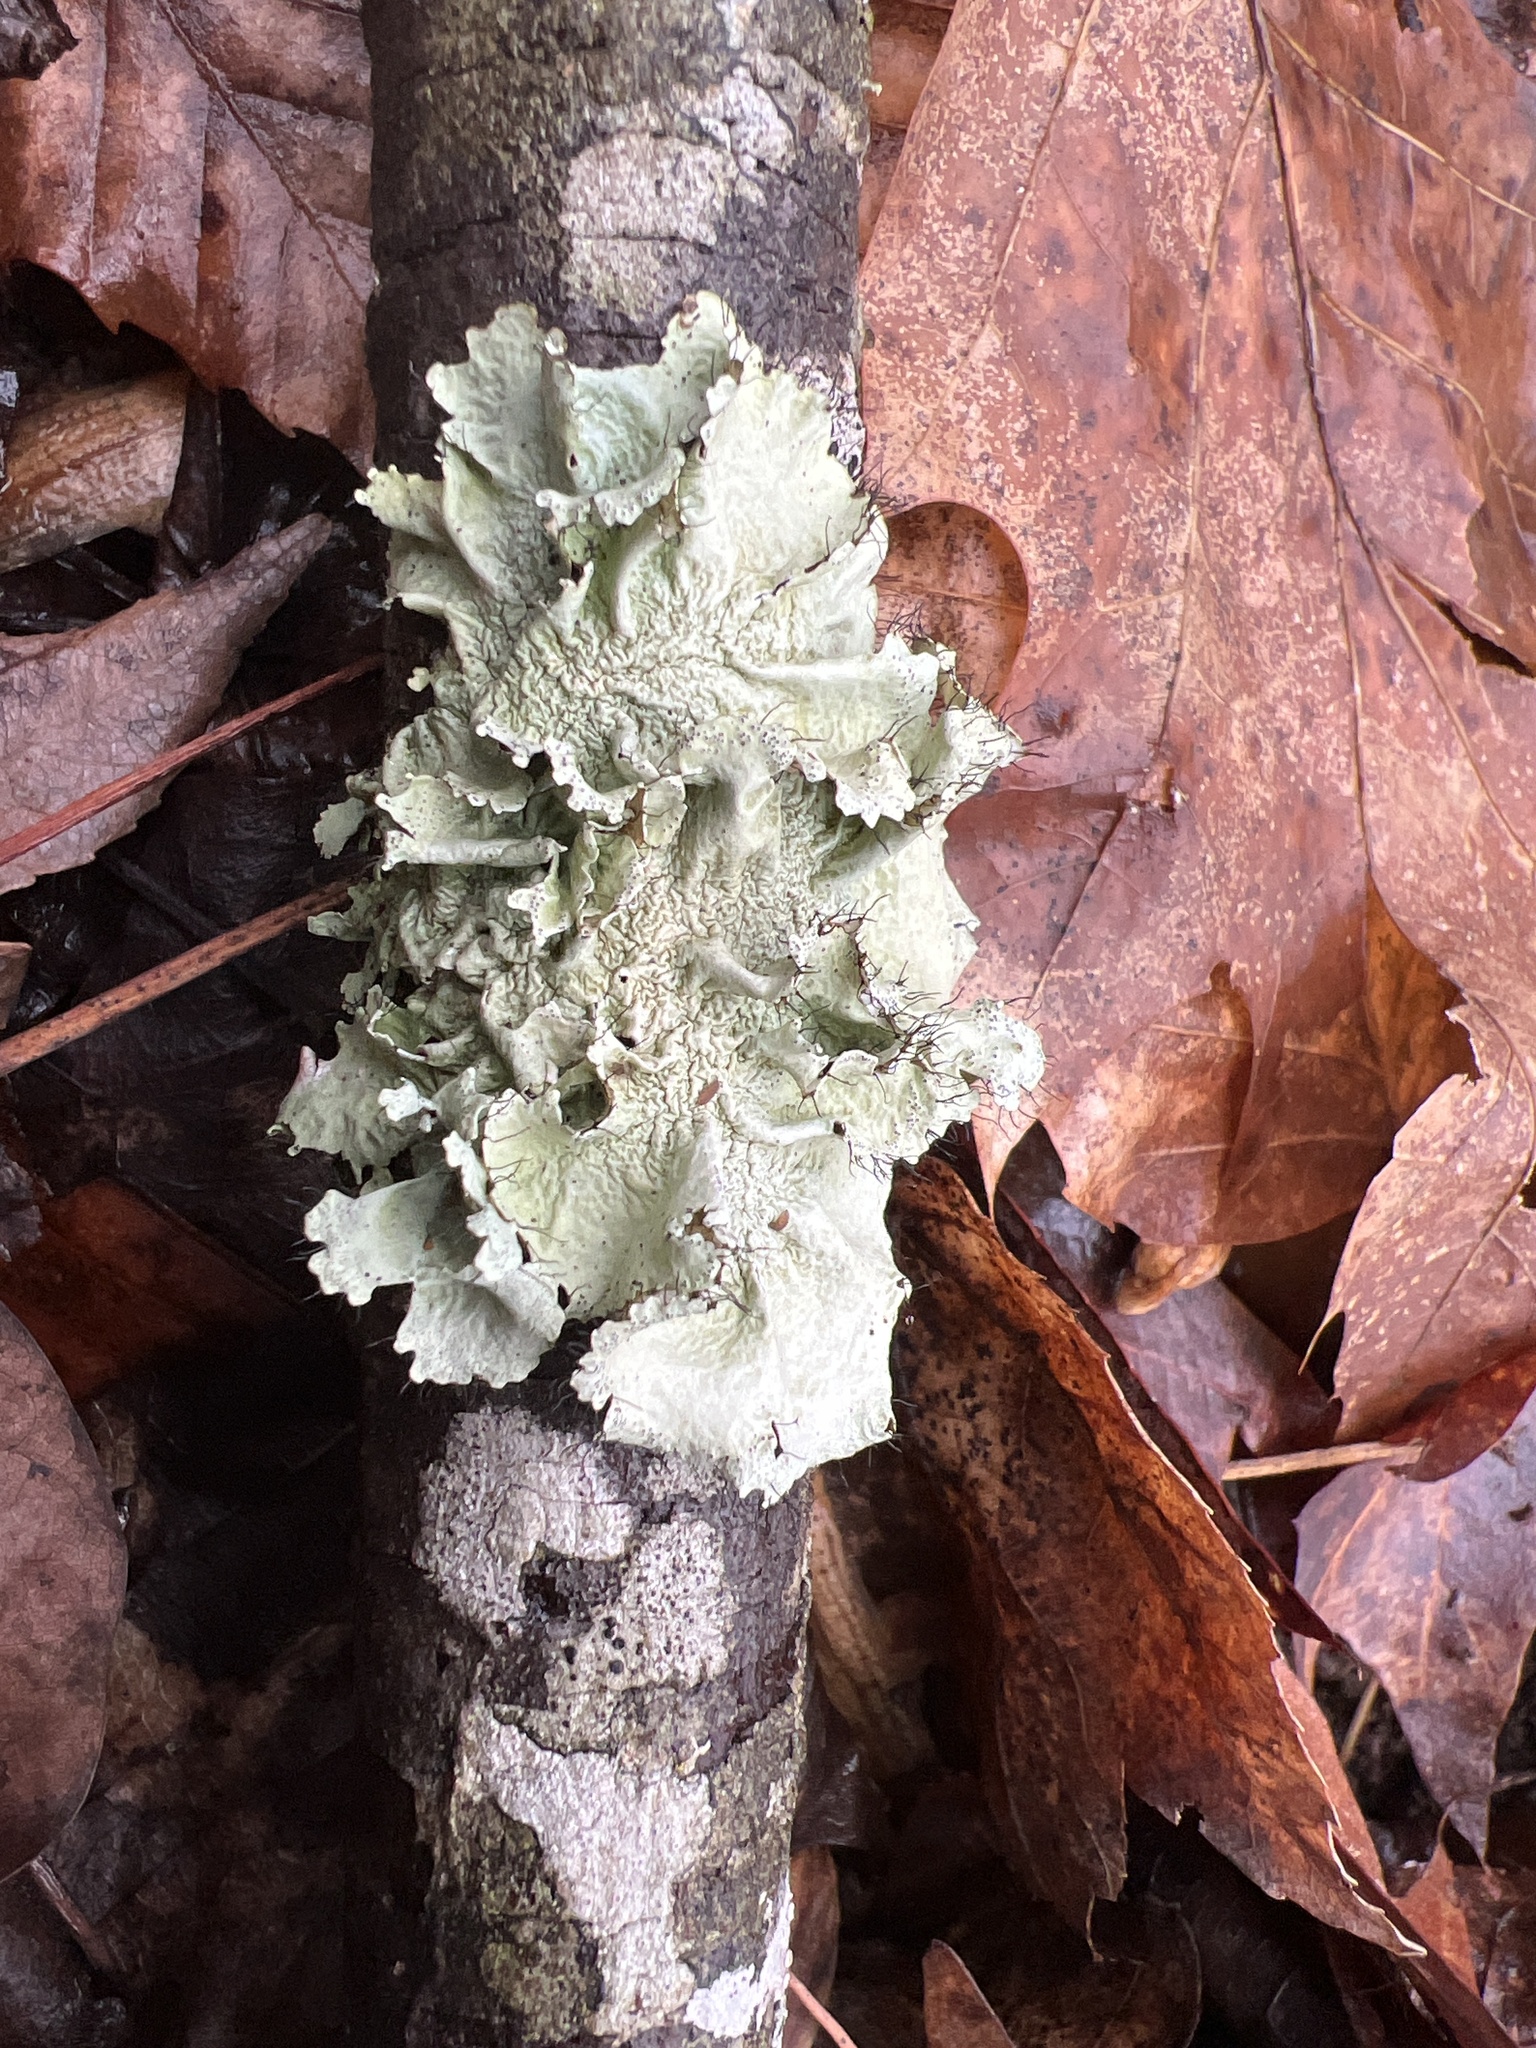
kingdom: Fungi
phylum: Ascomycota
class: Lecanoromycetes
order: Lecanorales
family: Parmeliaceae
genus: Parmotrema
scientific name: Parmotrema
